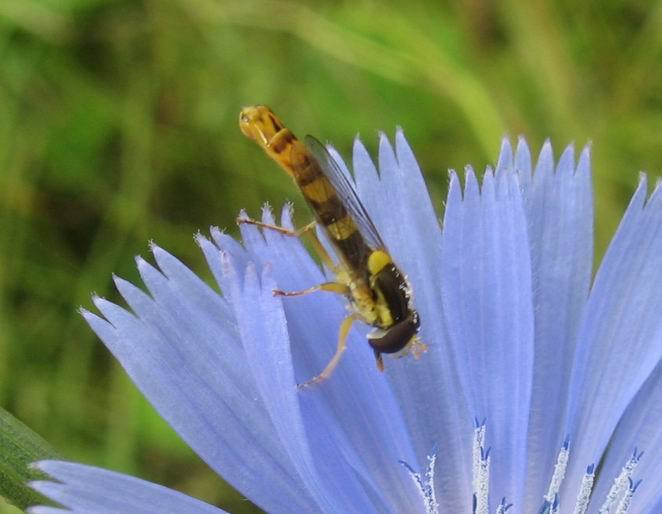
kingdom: Animalia
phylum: Arthropoda
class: Insecta
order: Diptera
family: Syrphidae
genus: Sphaerophoria
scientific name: Sphaerophoria scripta
